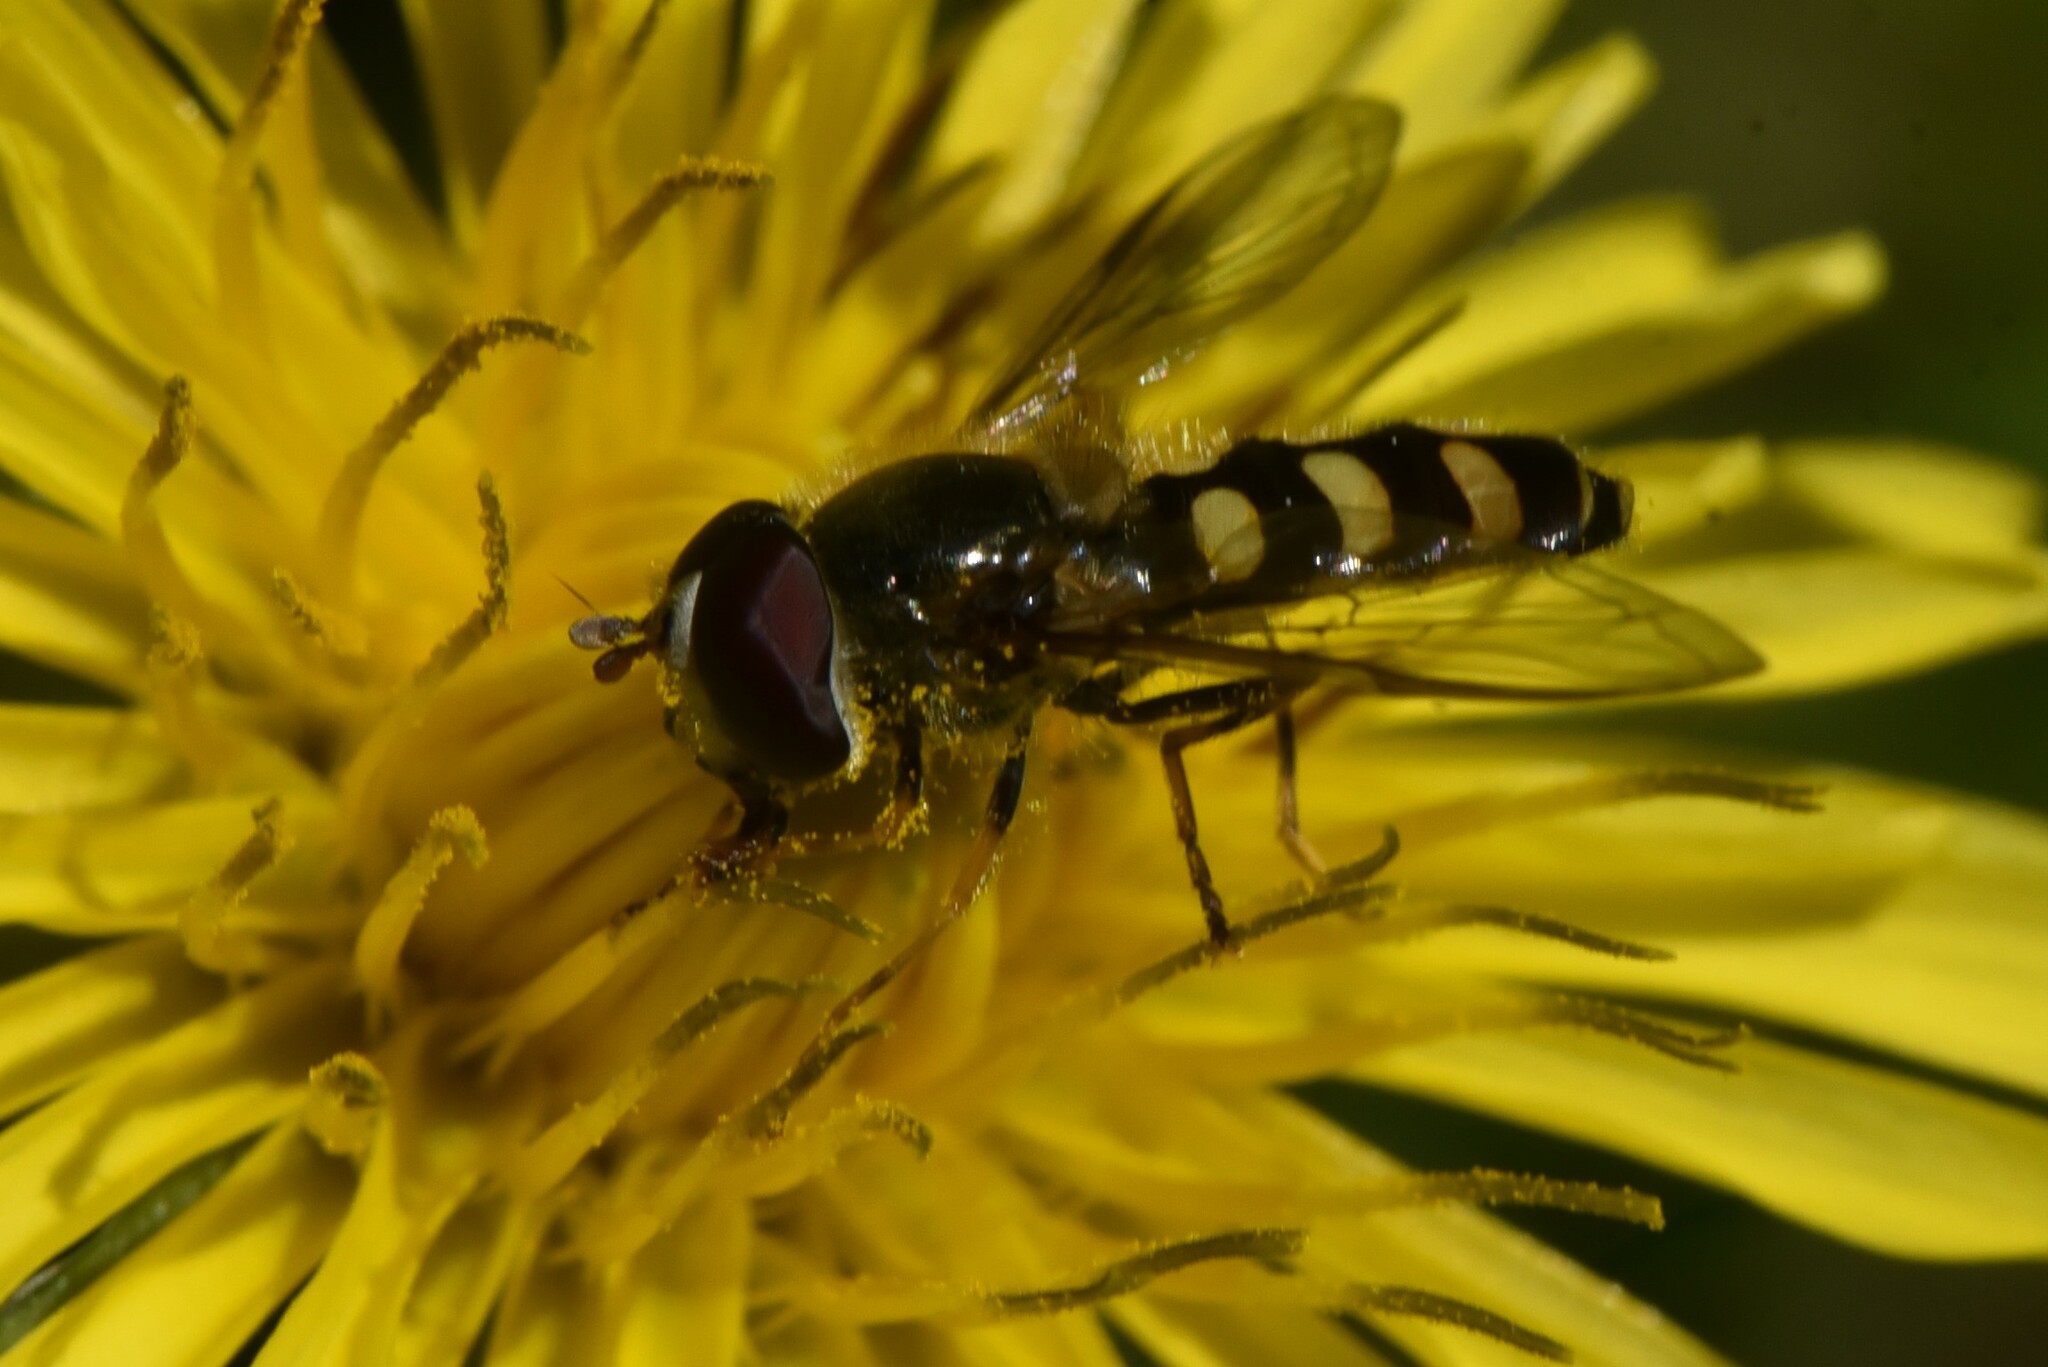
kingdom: Animalia
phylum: Arthropoda
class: Insecta
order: Diptera
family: Syrphidae
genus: Lapposyrphus
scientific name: Lapposyrphus lapponicus
